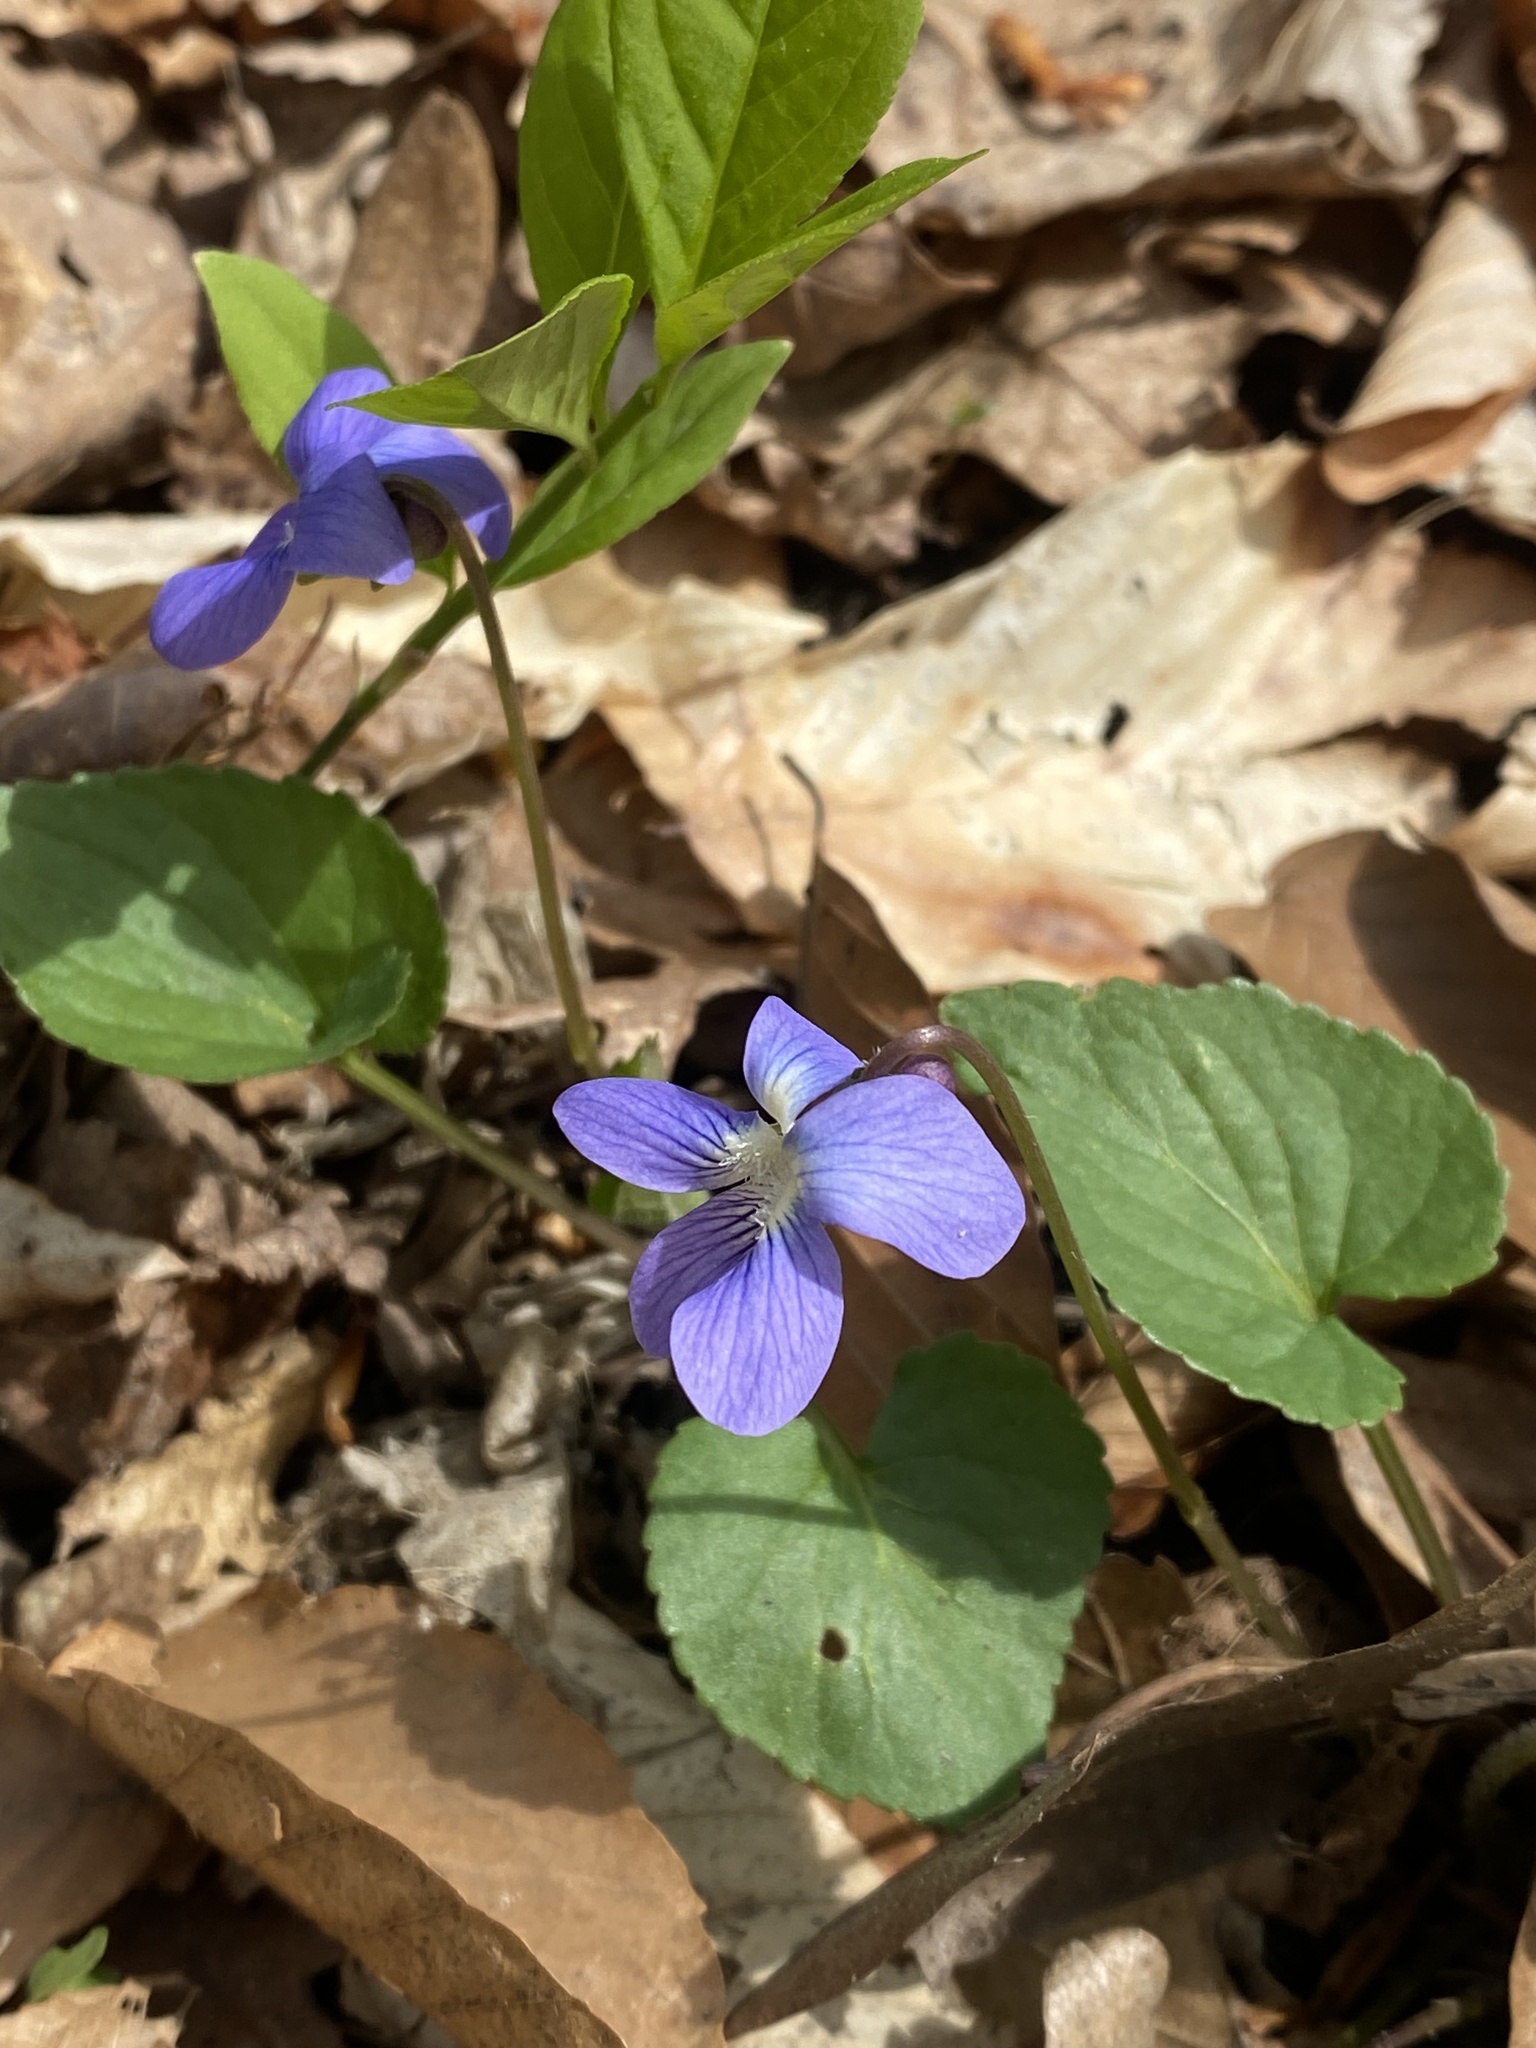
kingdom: Plantae
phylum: Tracheophyta
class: Magnoliopsida
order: Malpighiales
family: Violaceae
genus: Viola
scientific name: Viola sororia
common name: Dooryard violet
